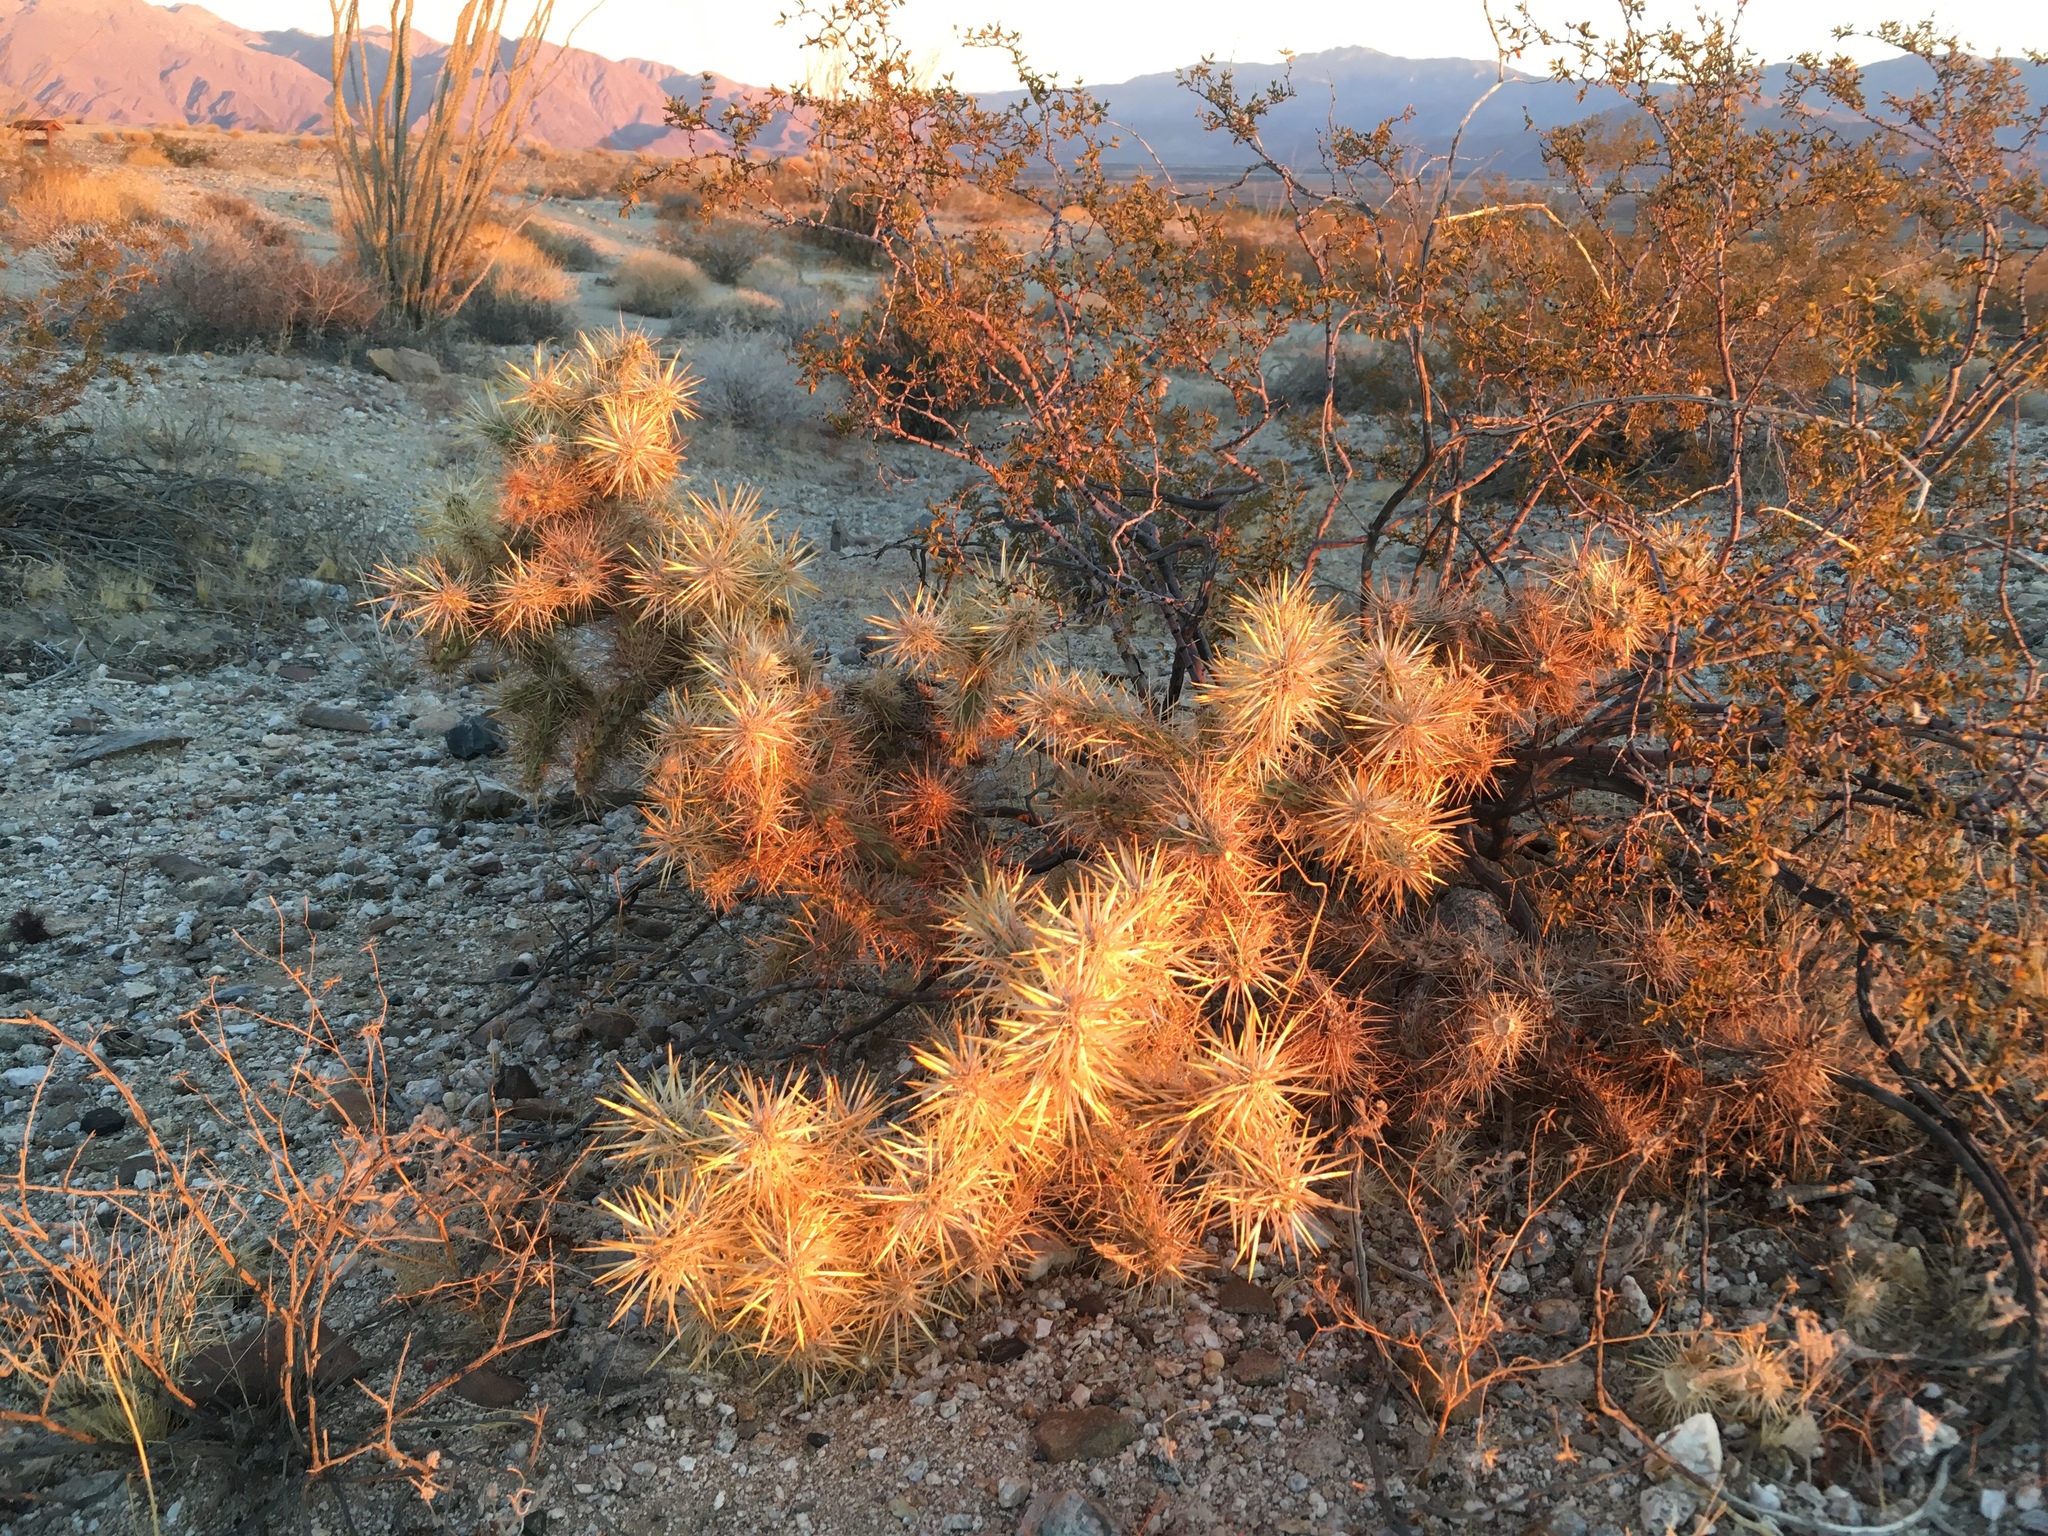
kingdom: Plantae
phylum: Tracheophyta
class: Magnoliopsida
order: Caryophyllales
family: Cactaceae
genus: Cylindropuntia
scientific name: Cylindropuntia echinocarpa
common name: Ground cholla
